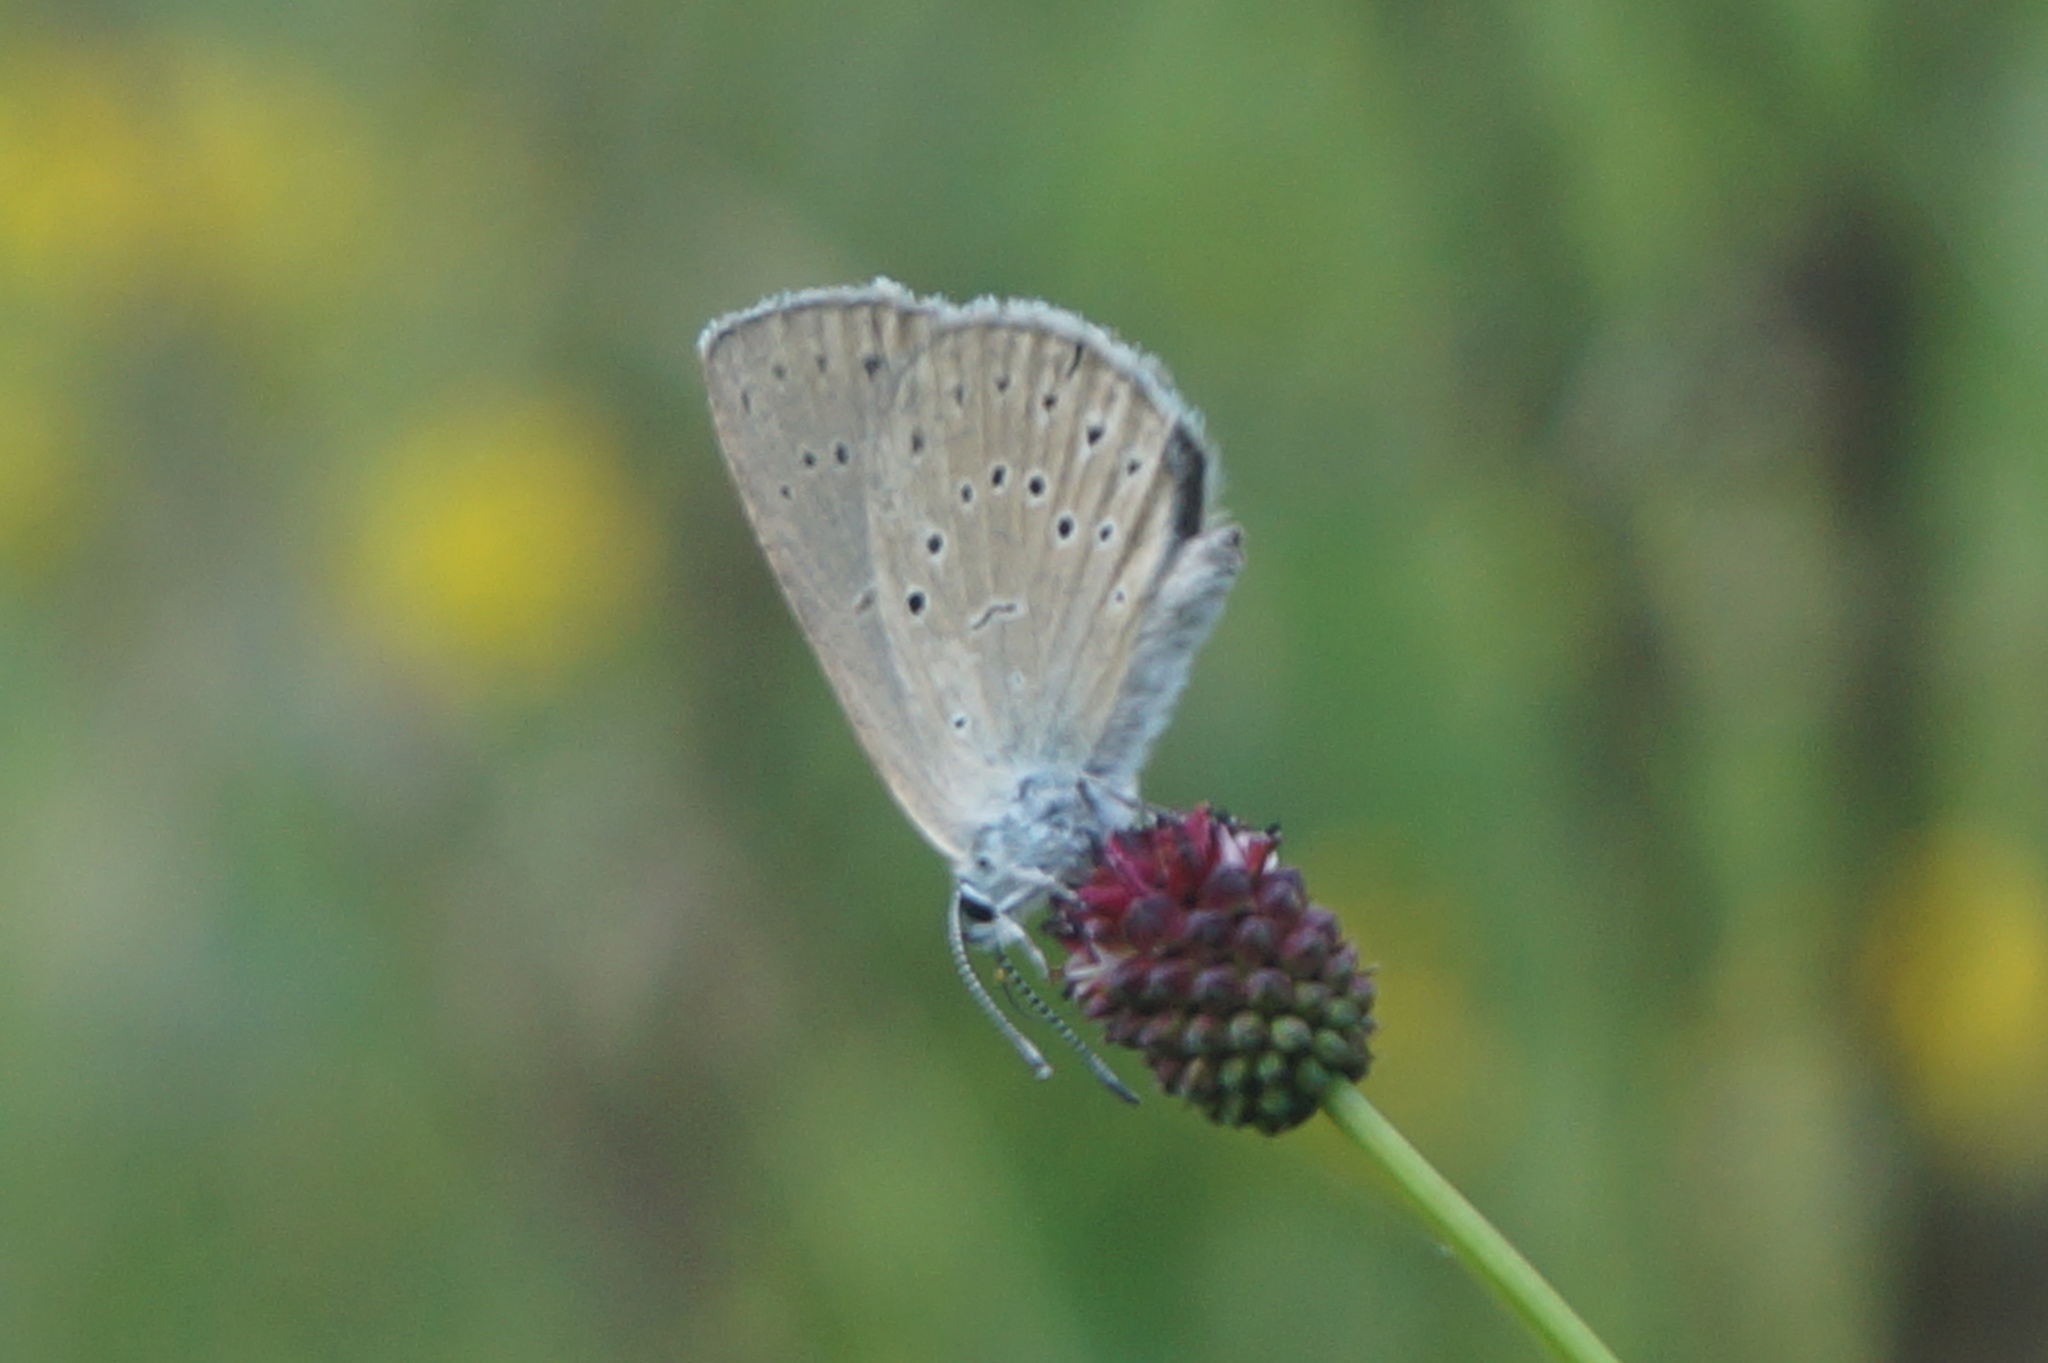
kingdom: Animalia
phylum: Arthropoda
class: Insecta
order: Lepidoptera
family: Lycaenidae
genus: Phengaris
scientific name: Phengaris teleius
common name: Scarce large blue
